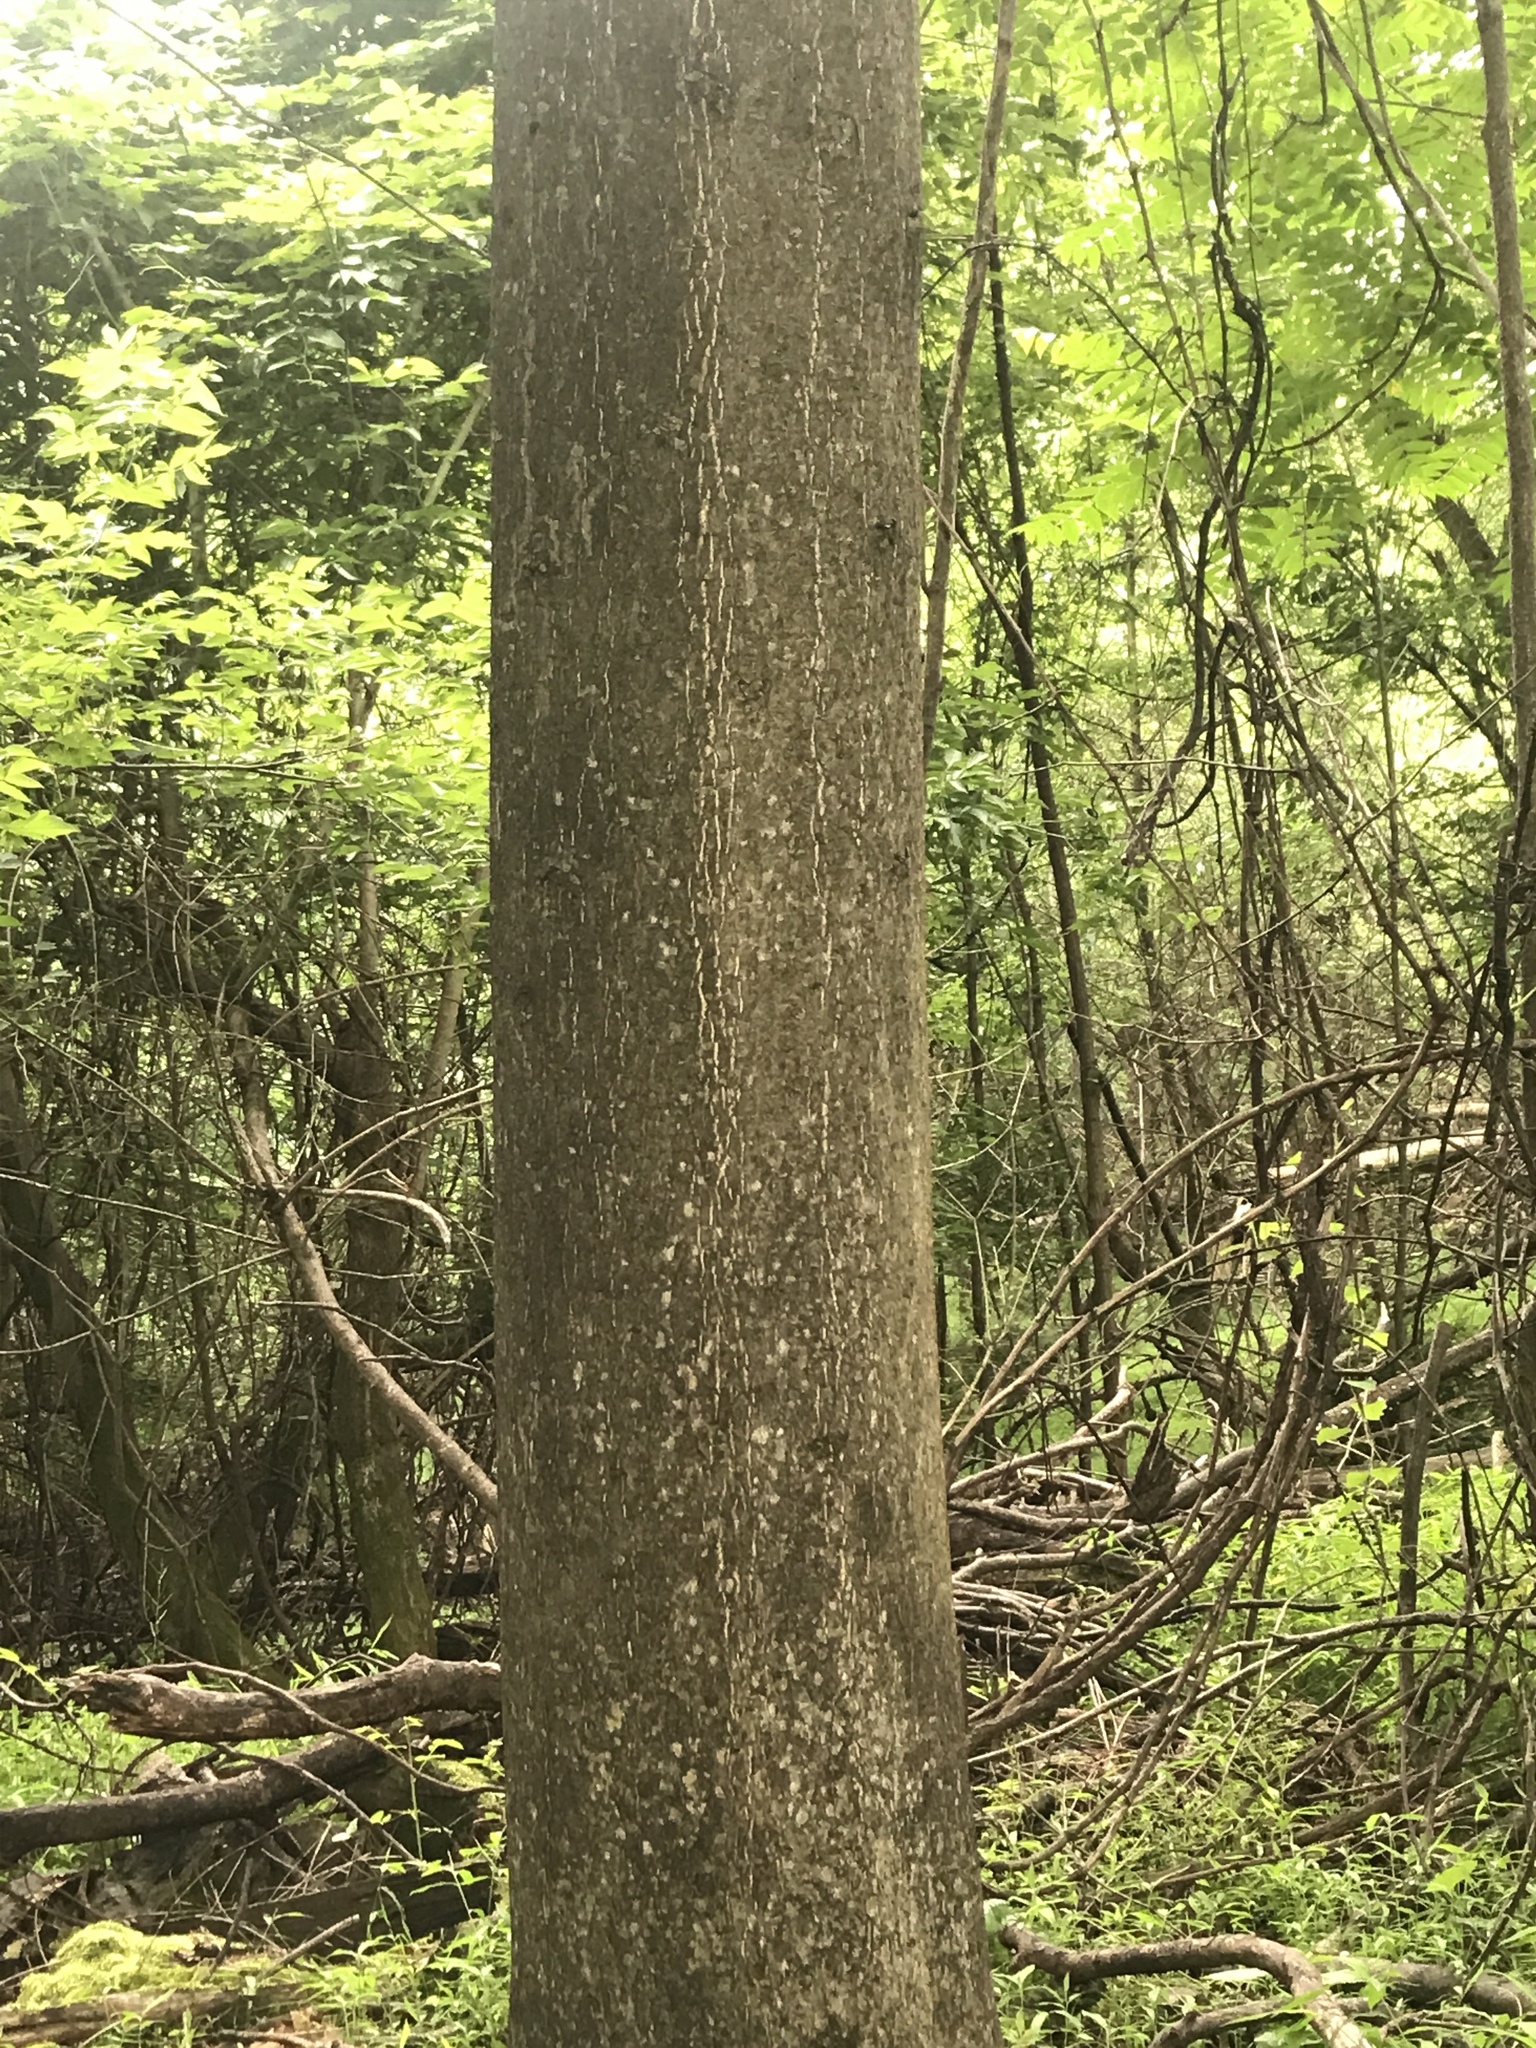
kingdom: Plantae
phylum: Tracheophyta
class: Magnoliopsida
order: Sapindales
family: Simaroubaceae
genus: Ailanthus
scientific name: Ailanthus altissima
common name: Tree-of-heaven
